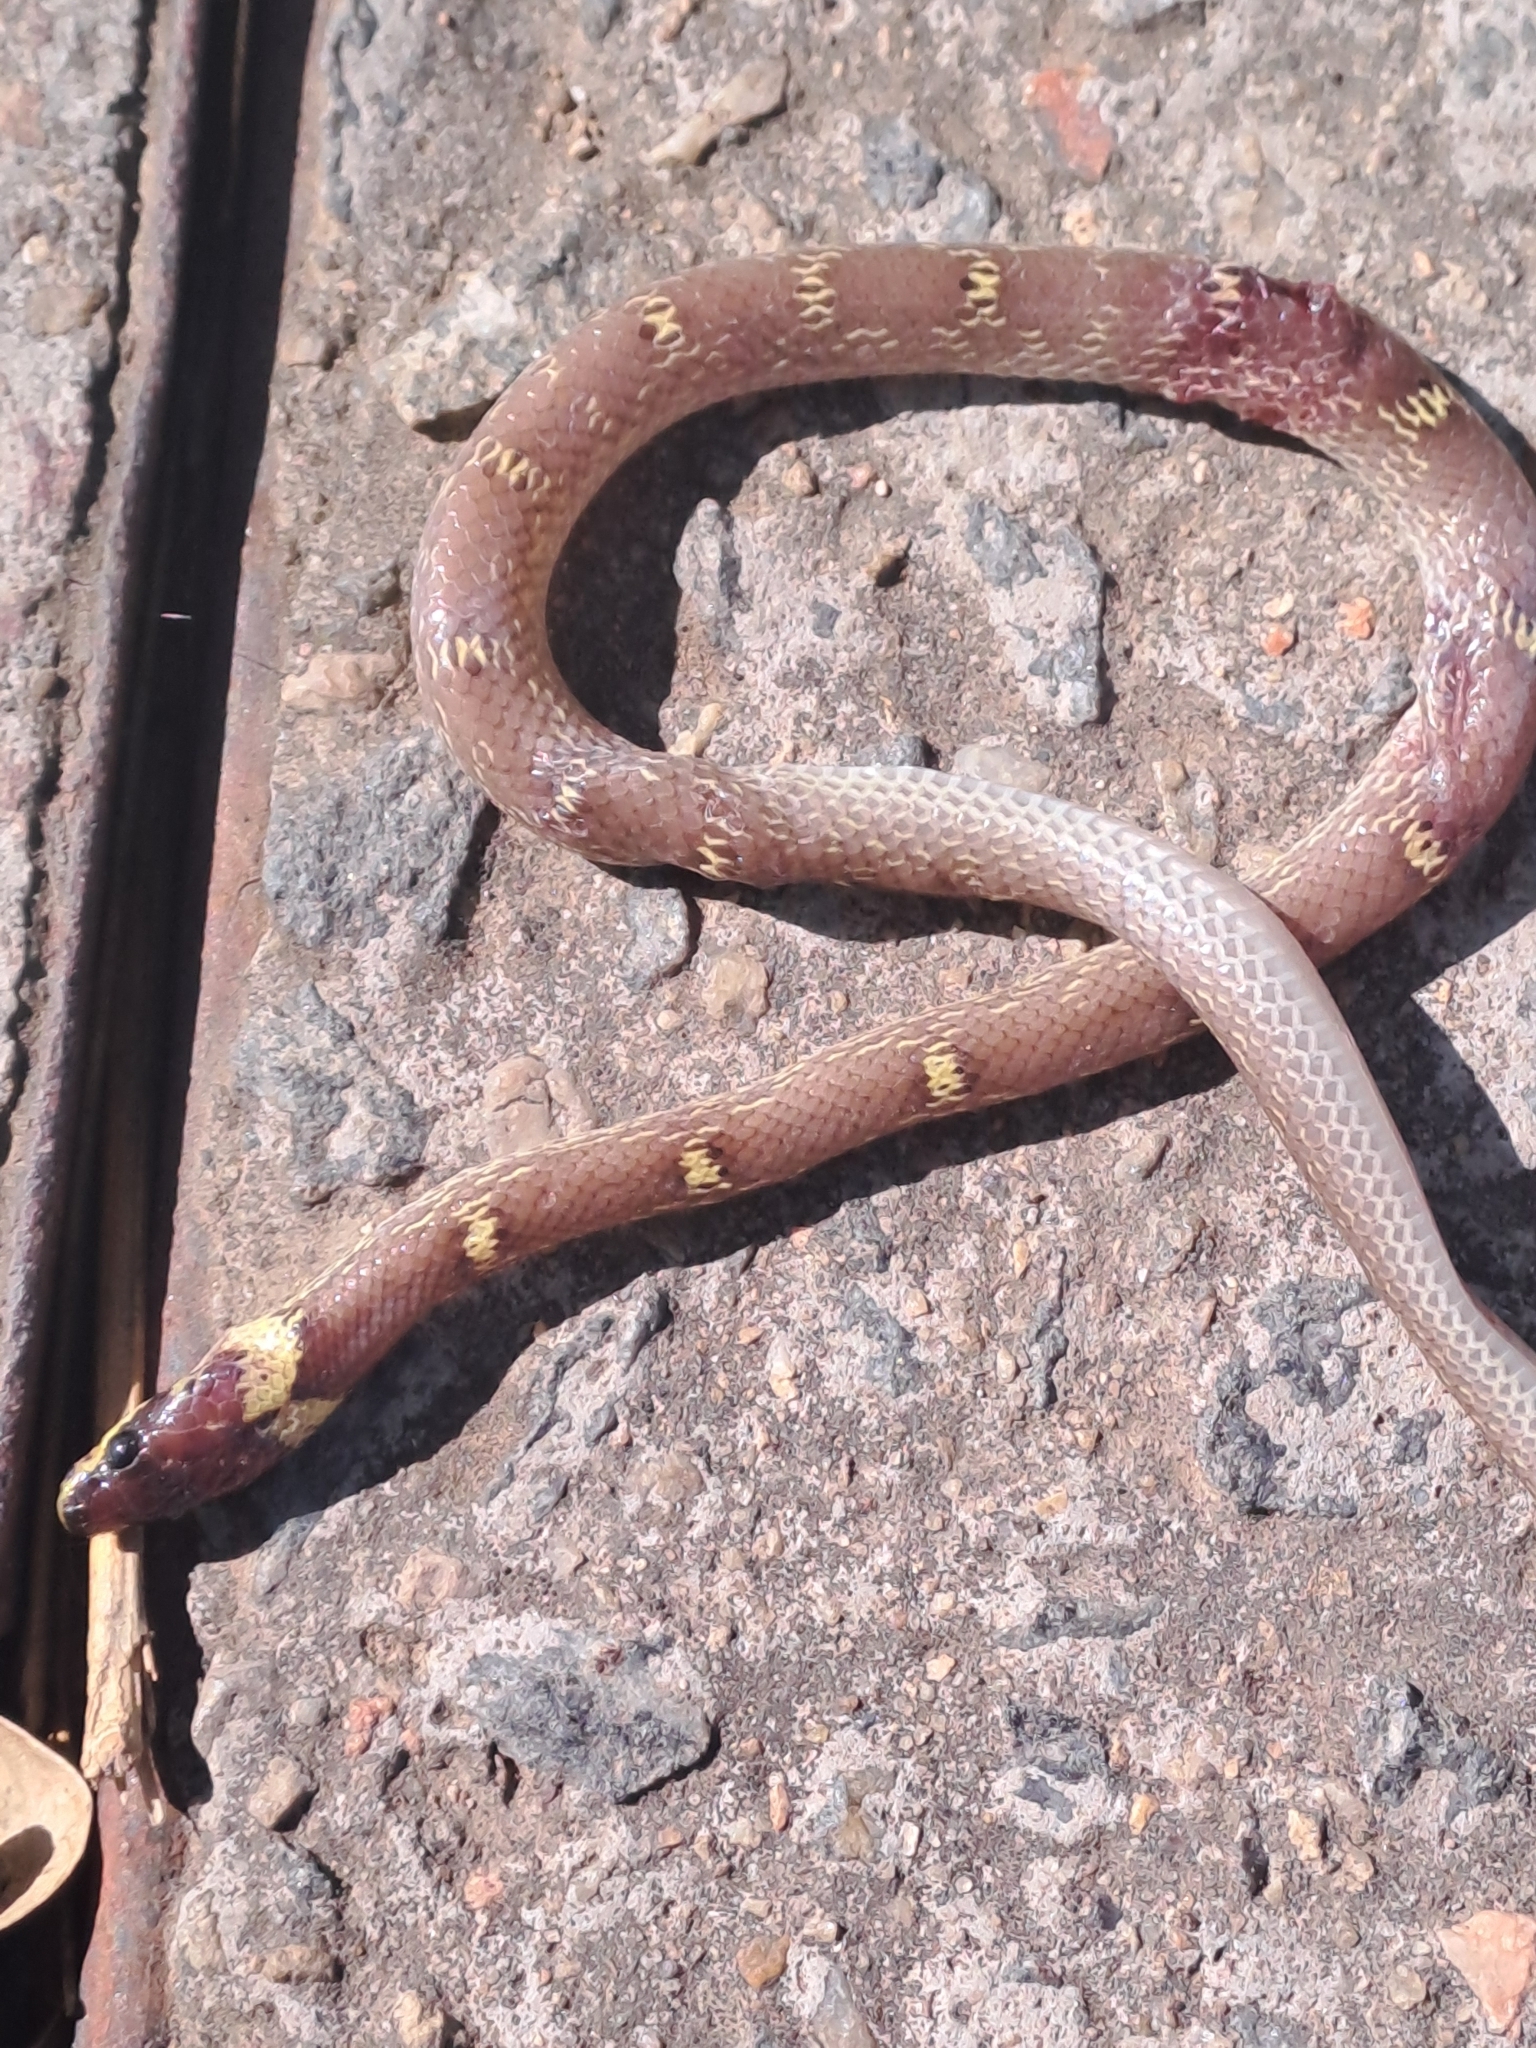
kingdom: Animalia
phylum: Chordata
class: Squamata
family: Colubridae
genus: Lycodon
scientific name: Lycodon aulicus
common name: Common wolf snake
